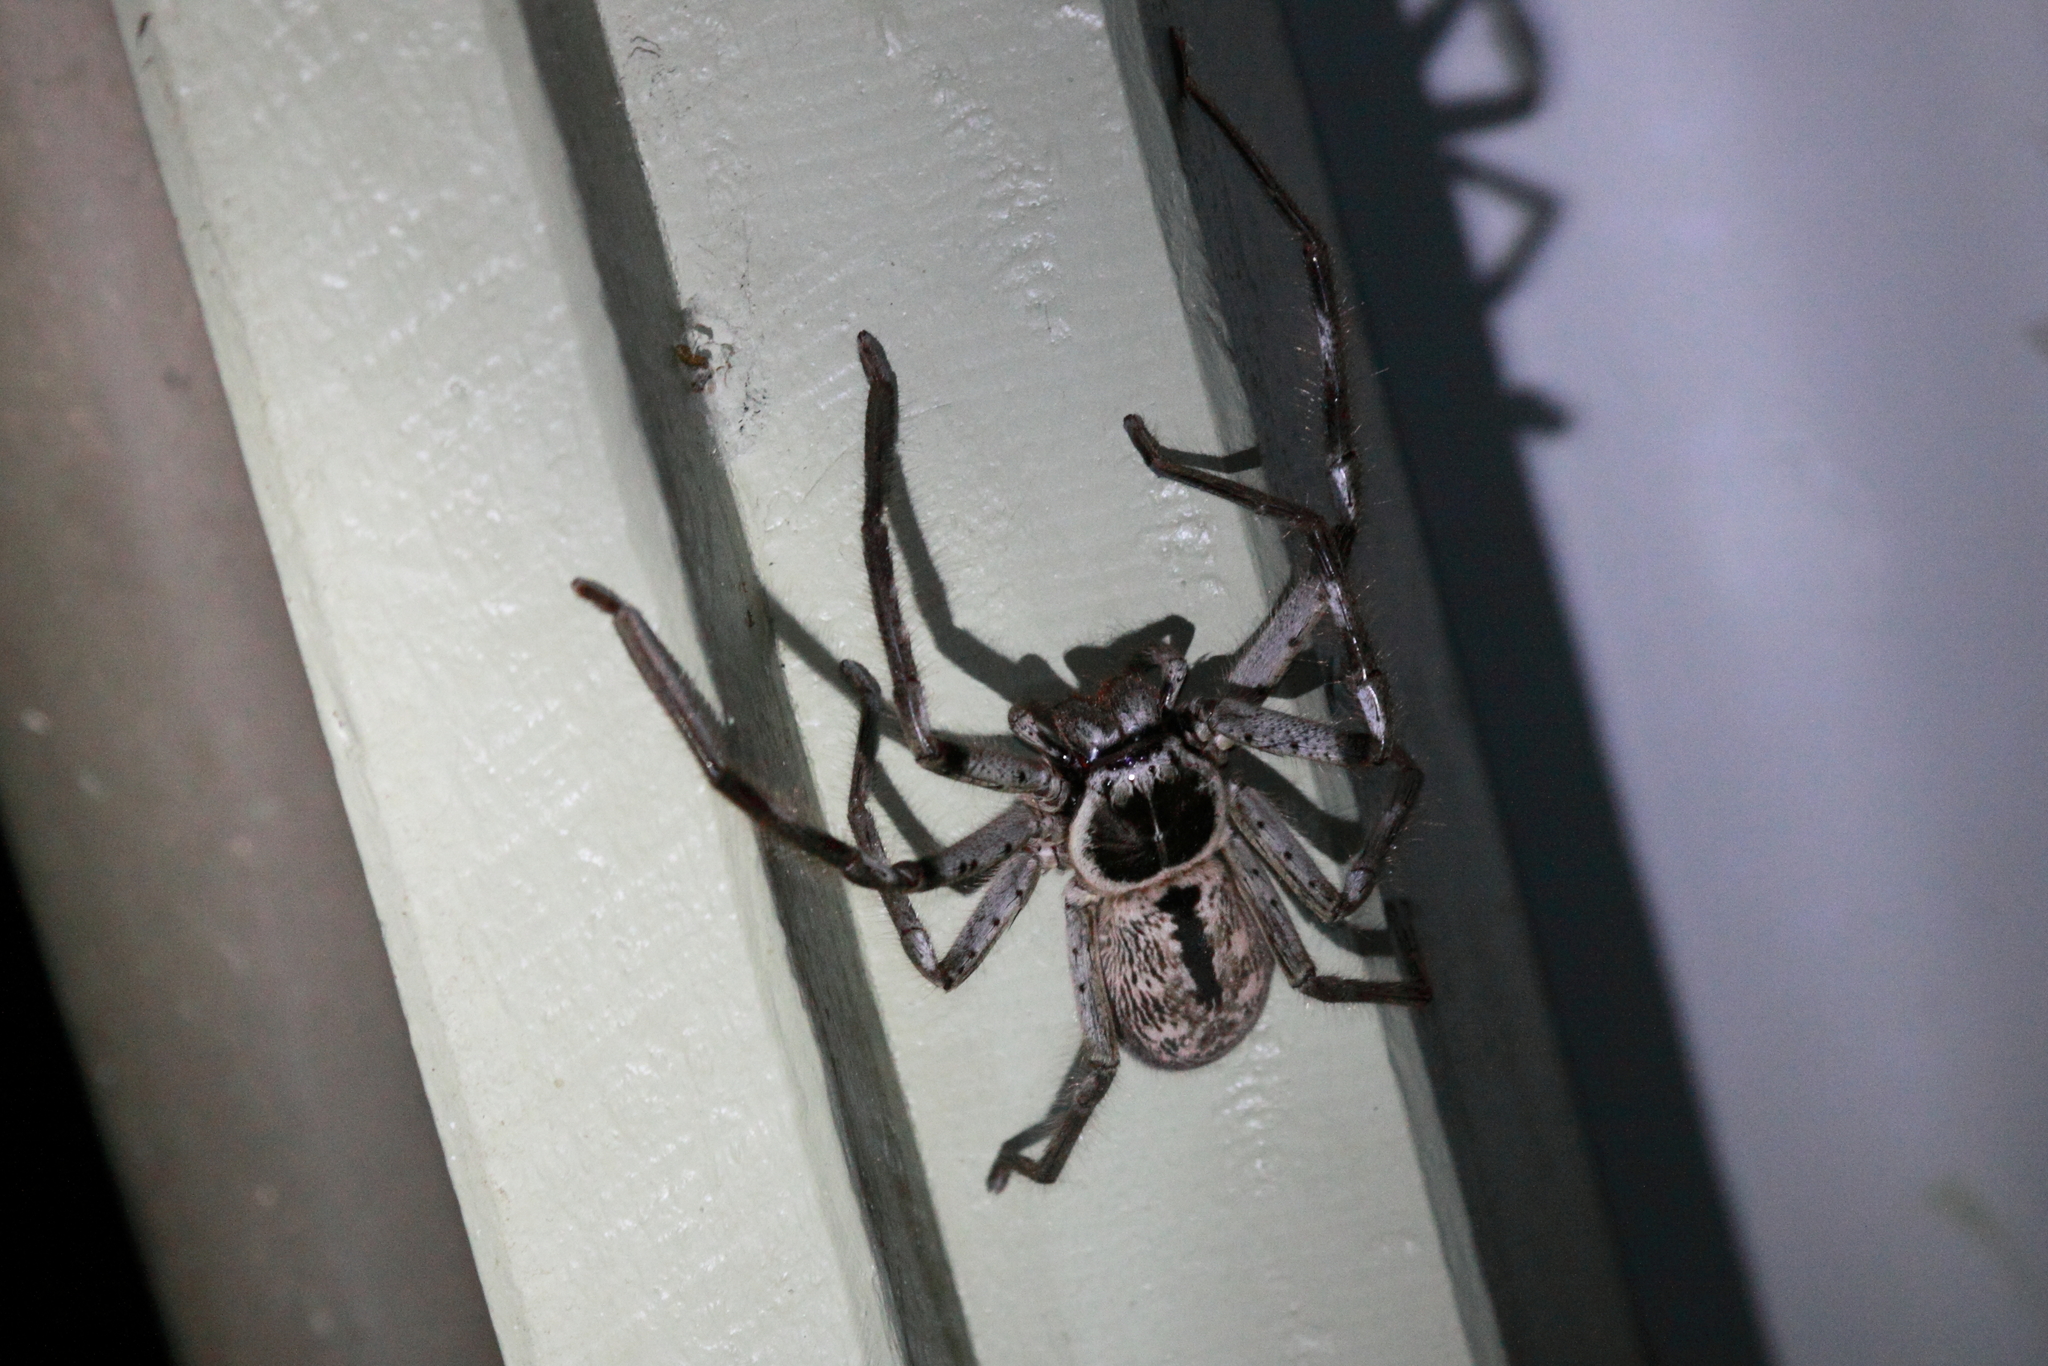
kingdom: Animalia
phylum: Arthropoda
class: Arachnida
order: Araneae
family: Sparassidae
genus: Holconia
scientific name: Holconia immanis
